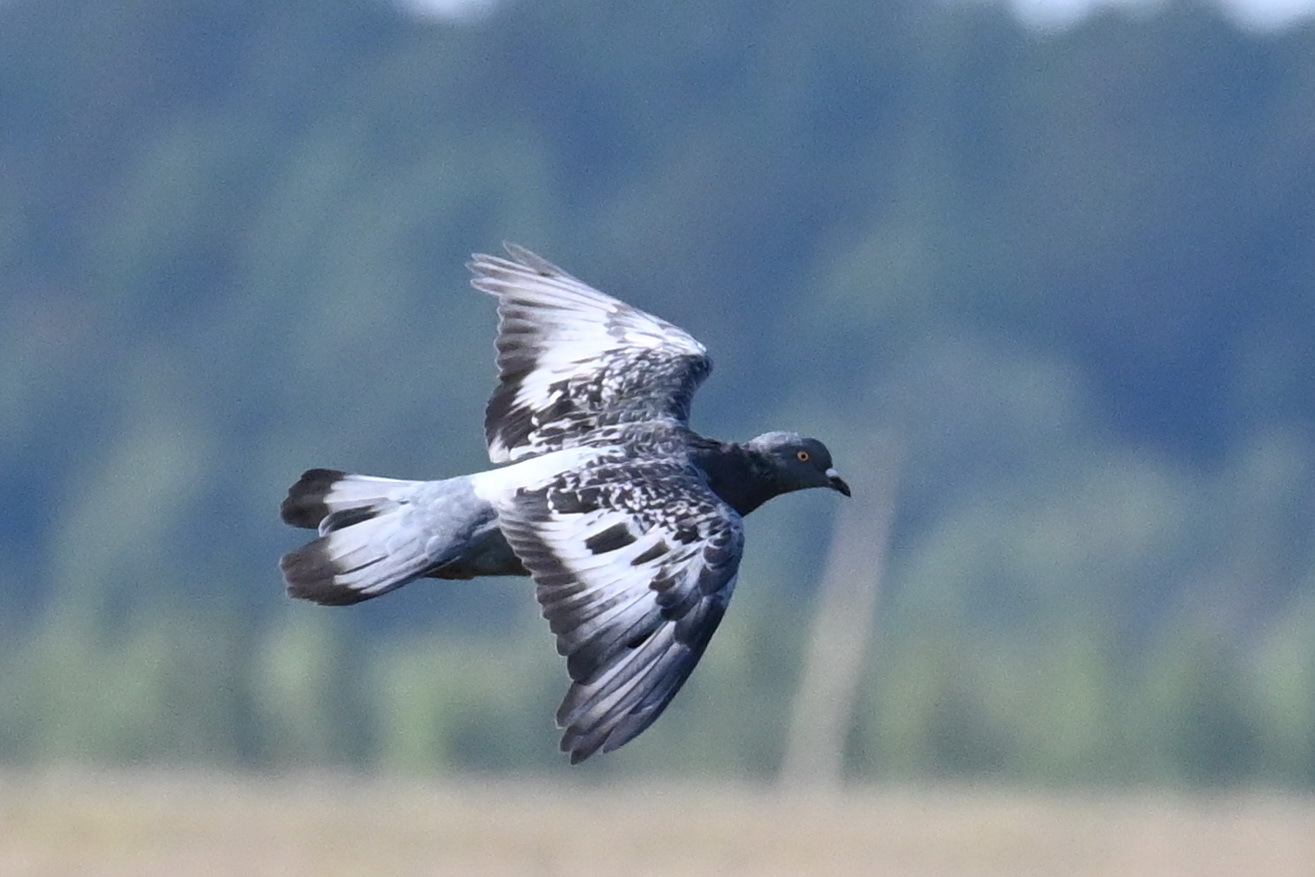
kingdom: Animalia
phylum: Chordata
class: Aves
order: Columbiformes
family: Columbidae
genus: Columba
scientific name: Columba livia
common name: Rock pigeon
